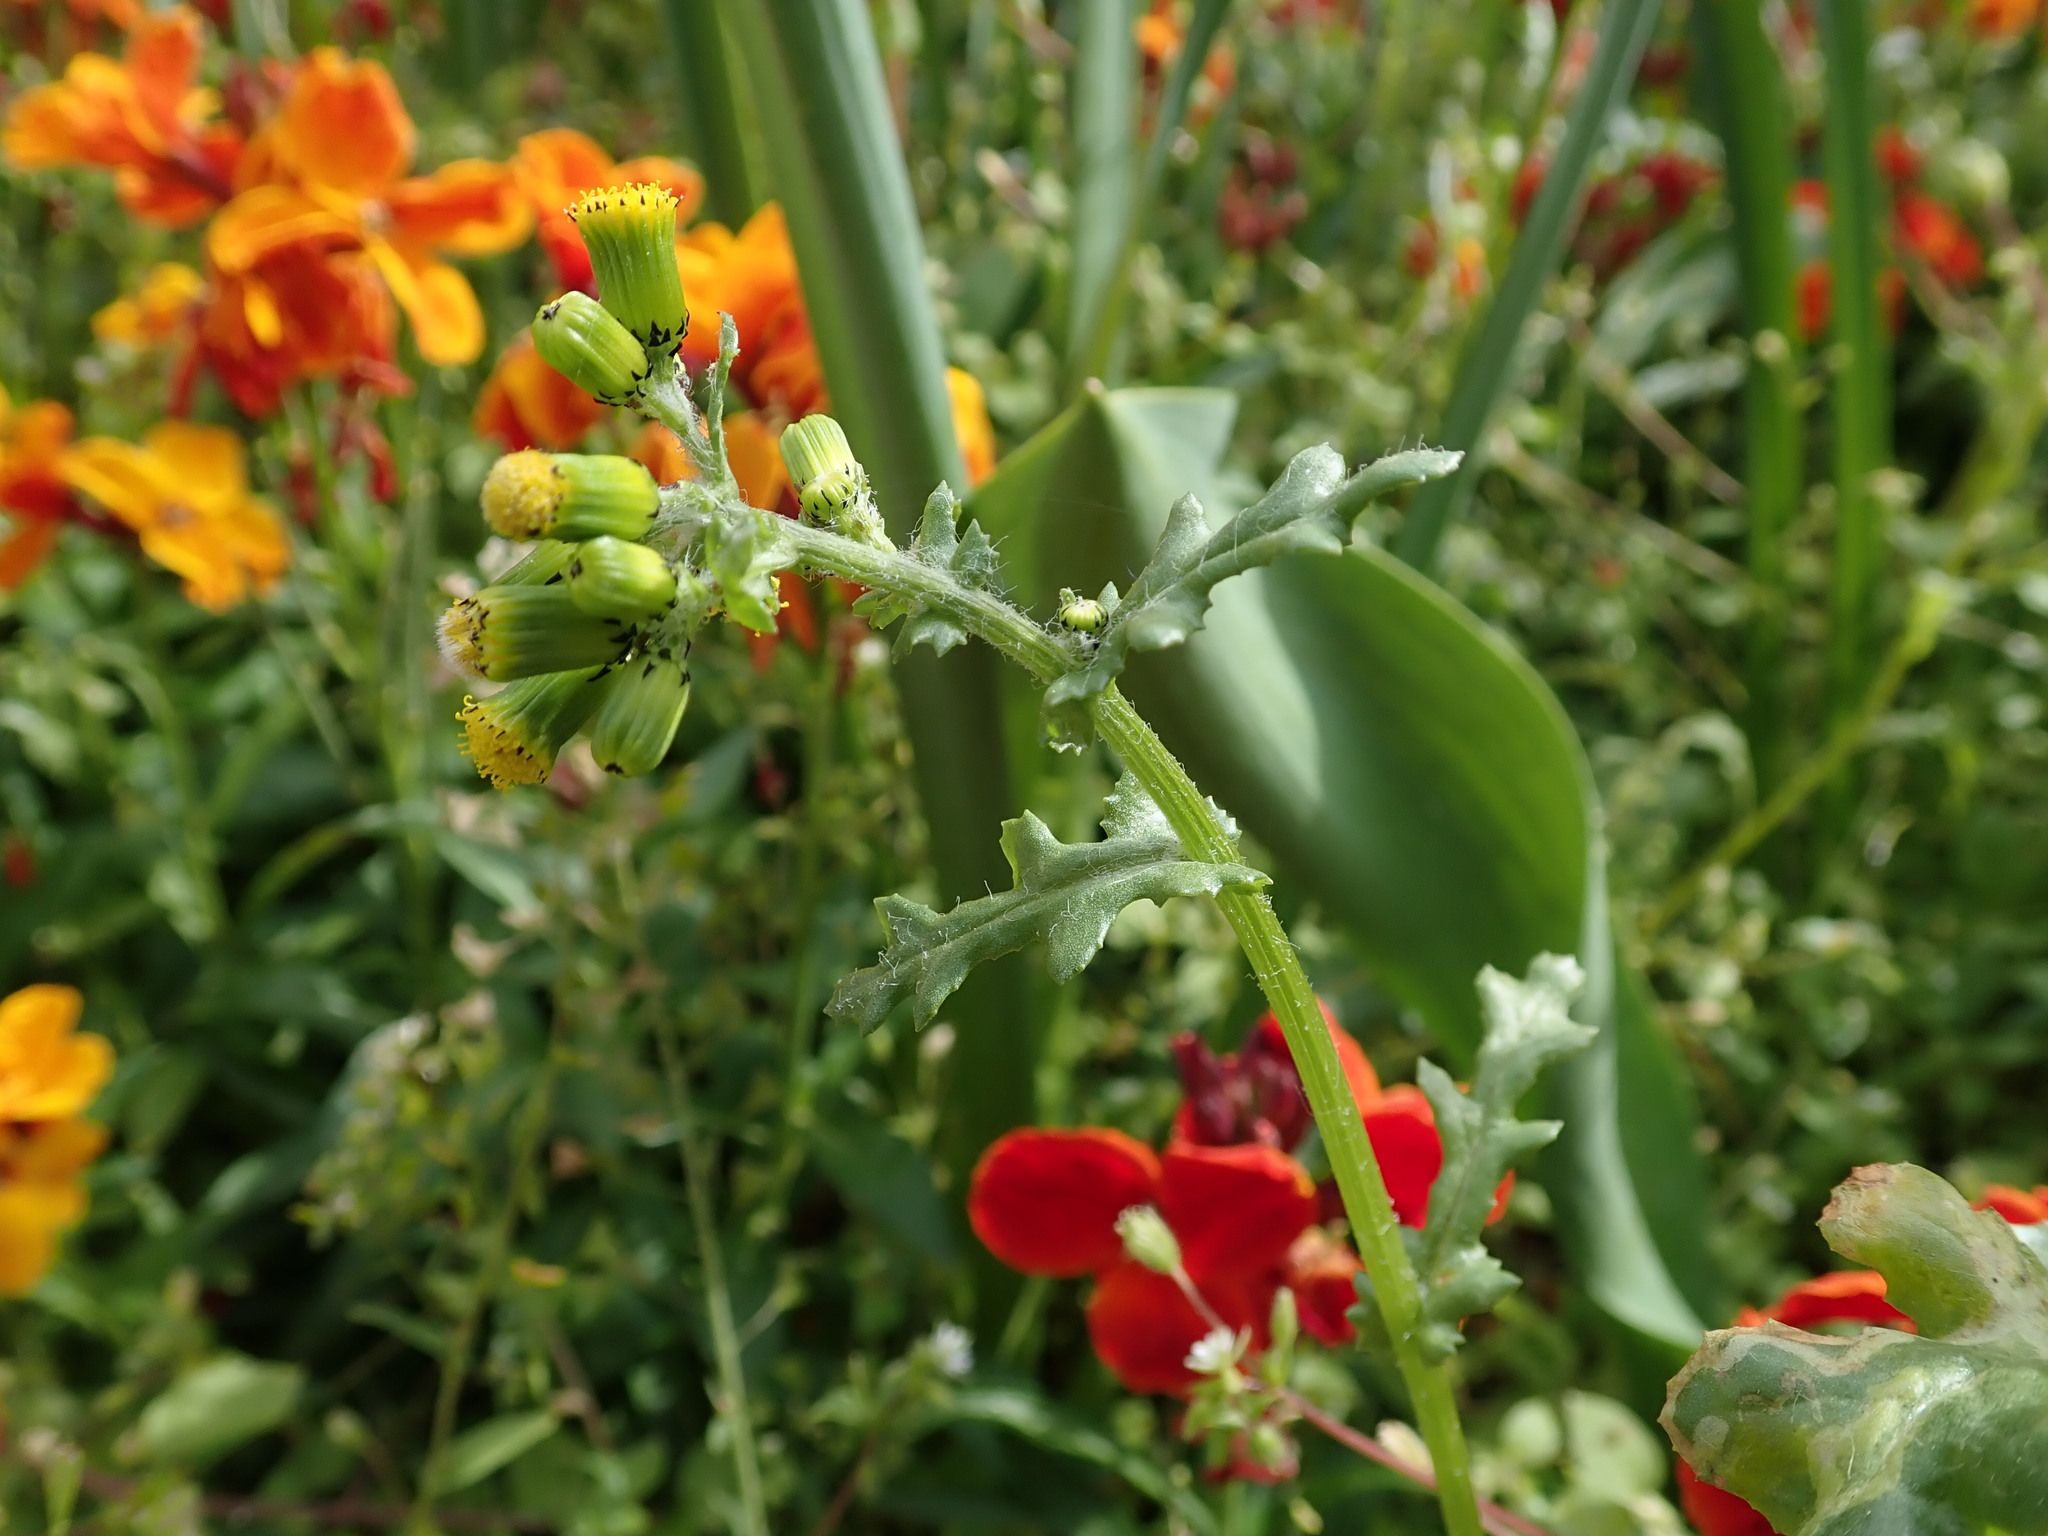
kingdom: Plantae
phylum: Tracheophyta
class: Magnoliopsida
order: Asterales
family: Asteraceae
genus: Senecio
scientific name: Senecio vulgaris
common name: Old-man-in-the-spring
